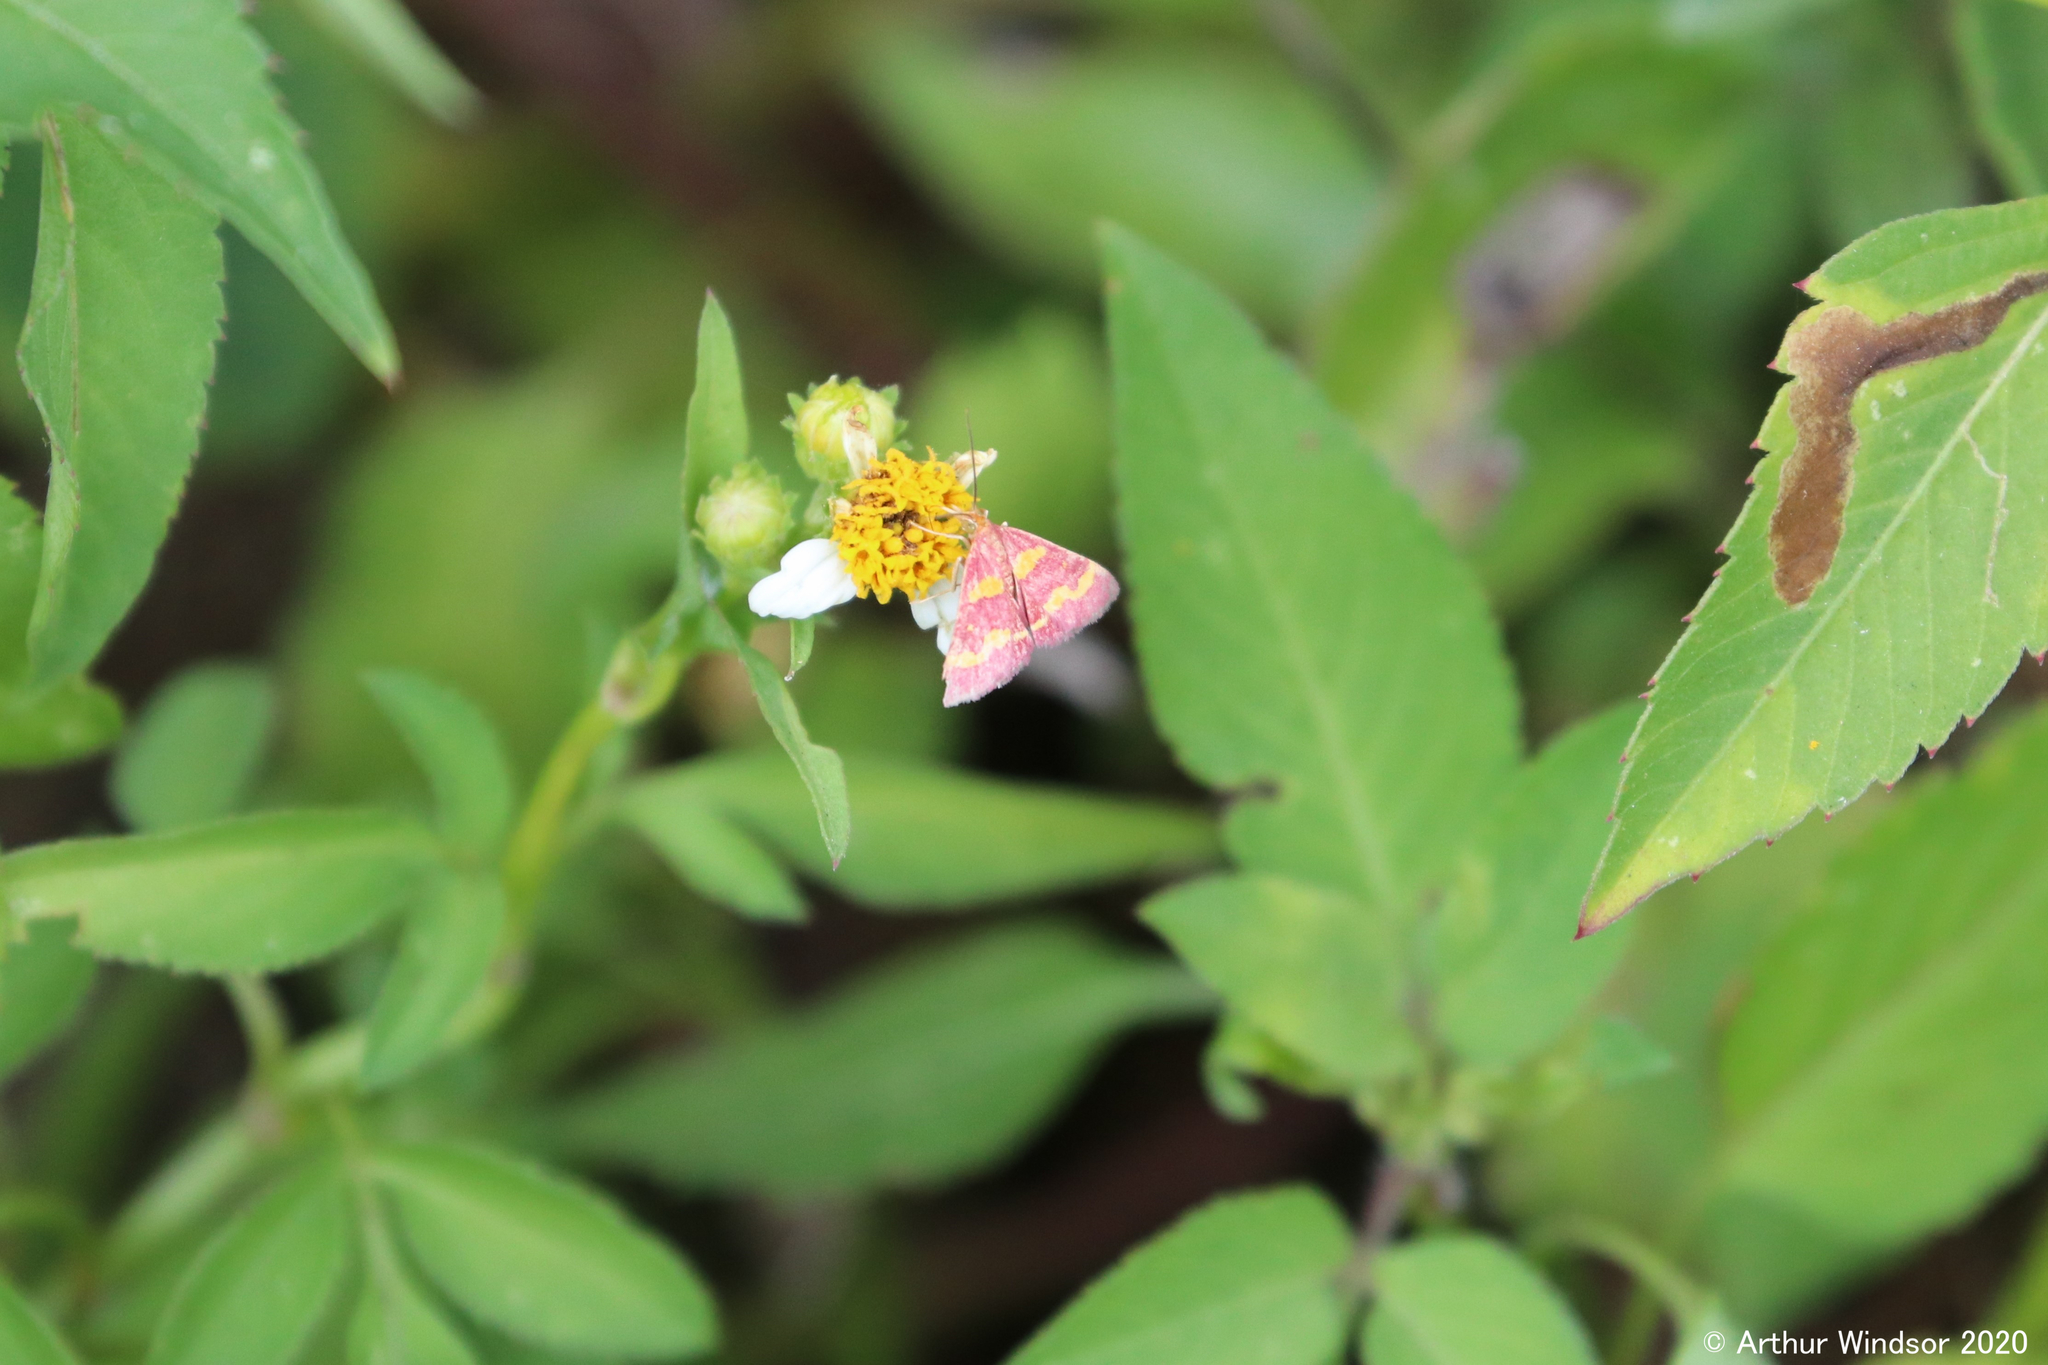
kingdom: Animalia
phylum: Arthropoda
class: Insecta
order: Lepidoptera
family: Crambidae
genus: Pyrausta
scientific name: Pyrausta tyralis
